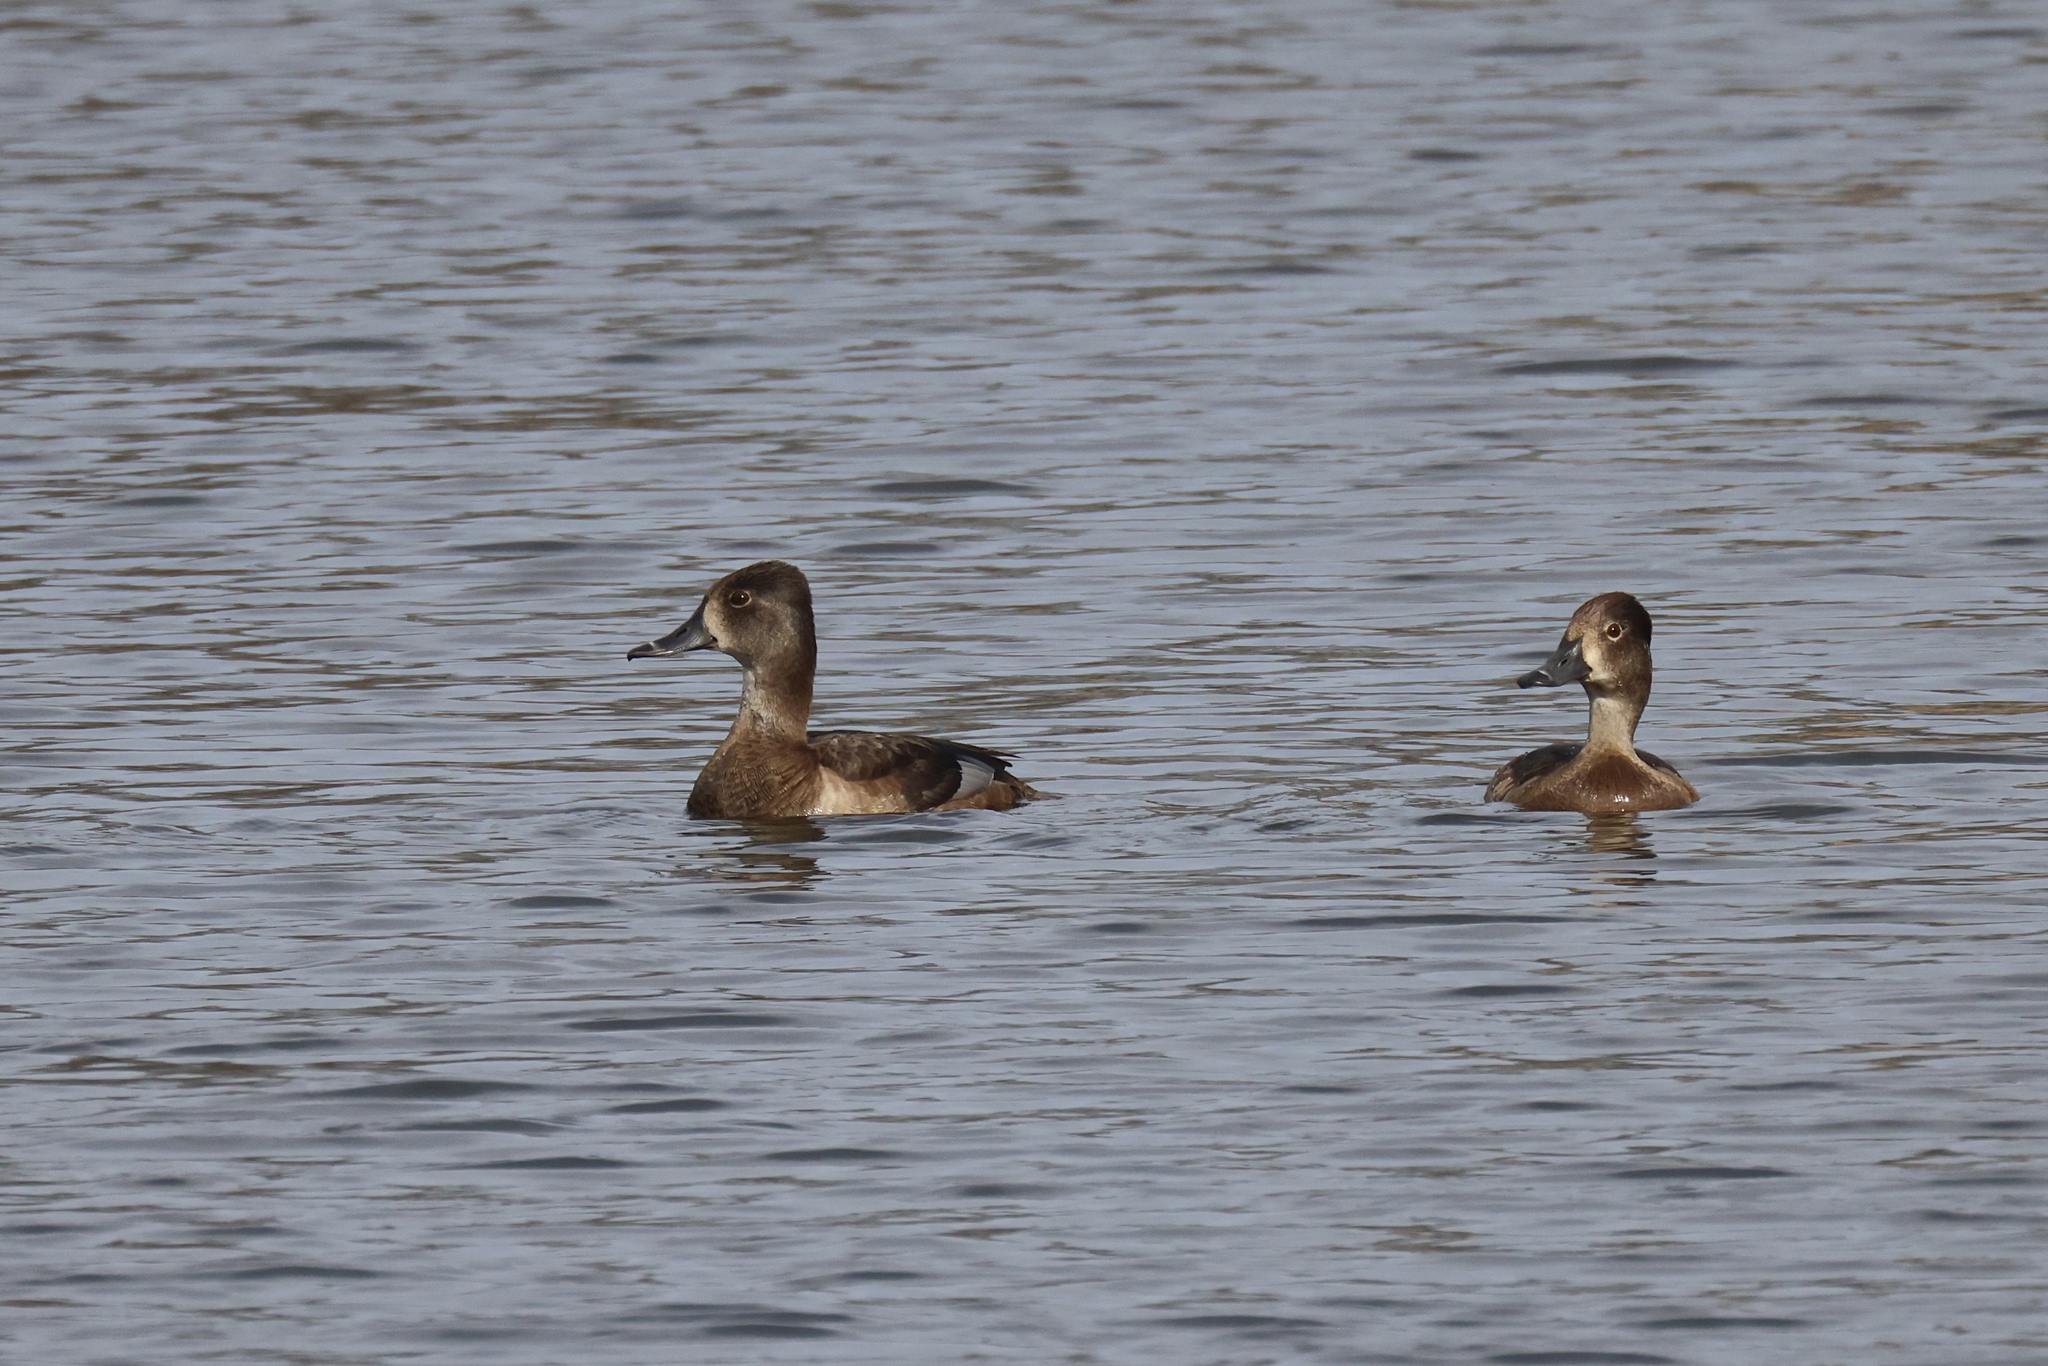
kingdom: Animalia
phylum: Chordata
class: Aves
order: Anseriformes
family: Anatidae
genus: Aythya
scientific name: Aythya collaris
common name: Ring-necked duck
